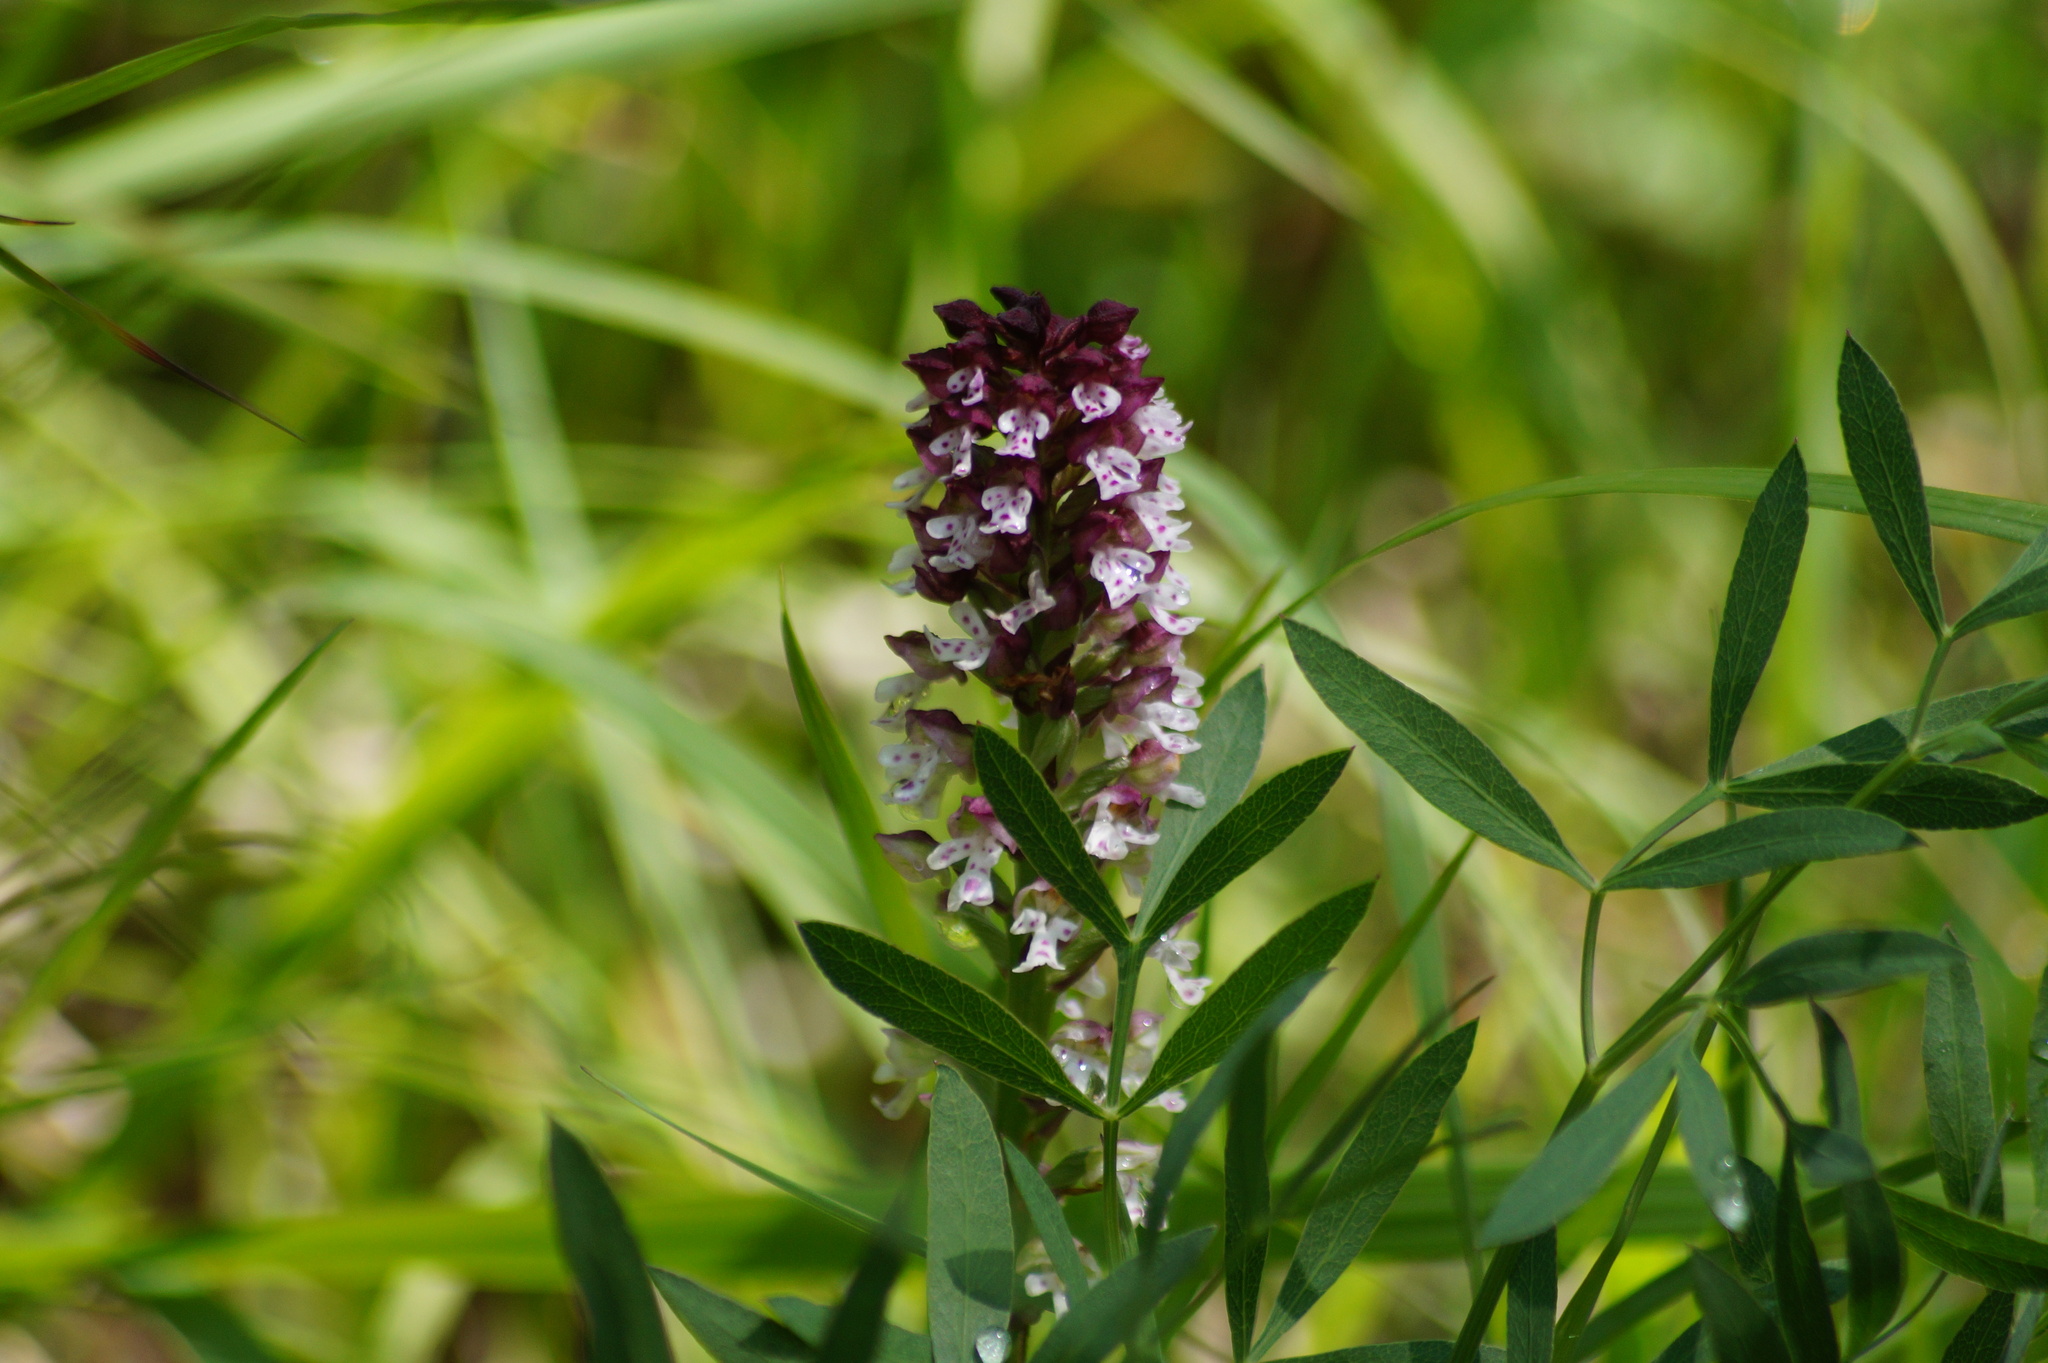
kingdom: Plantae
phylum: Tracheophyta
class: Liliopsida
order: Asparagales
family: Orchidaceae
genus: Neotinea
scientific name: Neotinea ustulata
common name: Burnt orchid
